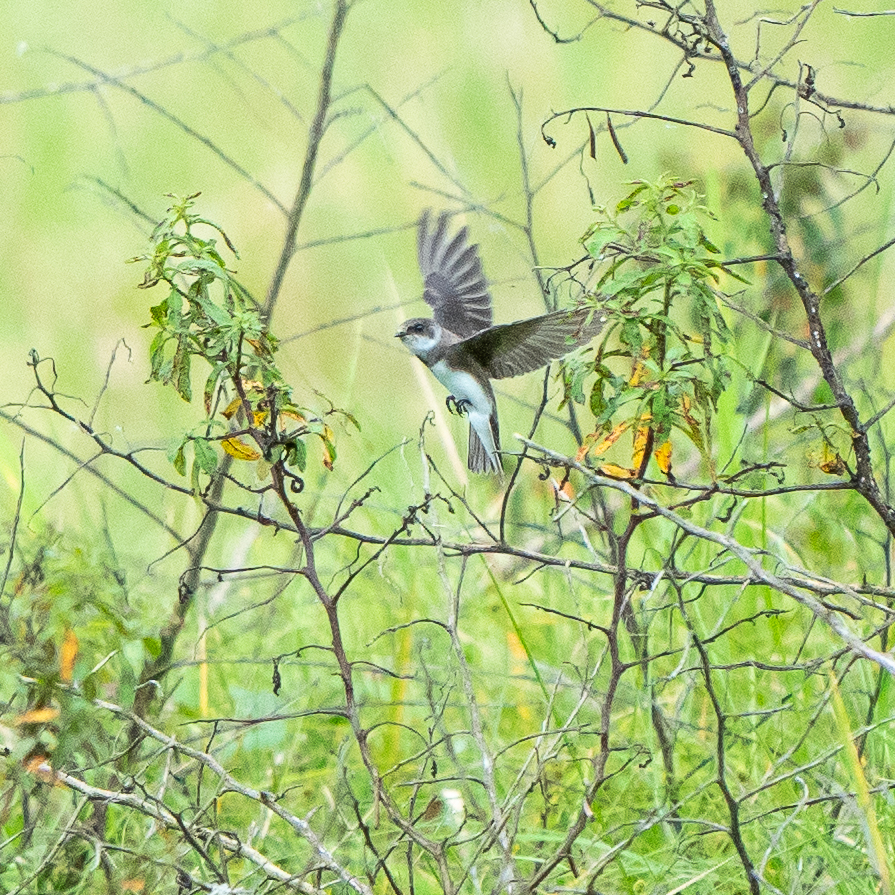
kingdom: Animalia
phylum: Chordata
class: Aves
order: Passeriformes
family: Hirundinidae
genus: Riparia
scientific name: Riparia riparia
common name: Sand martin
